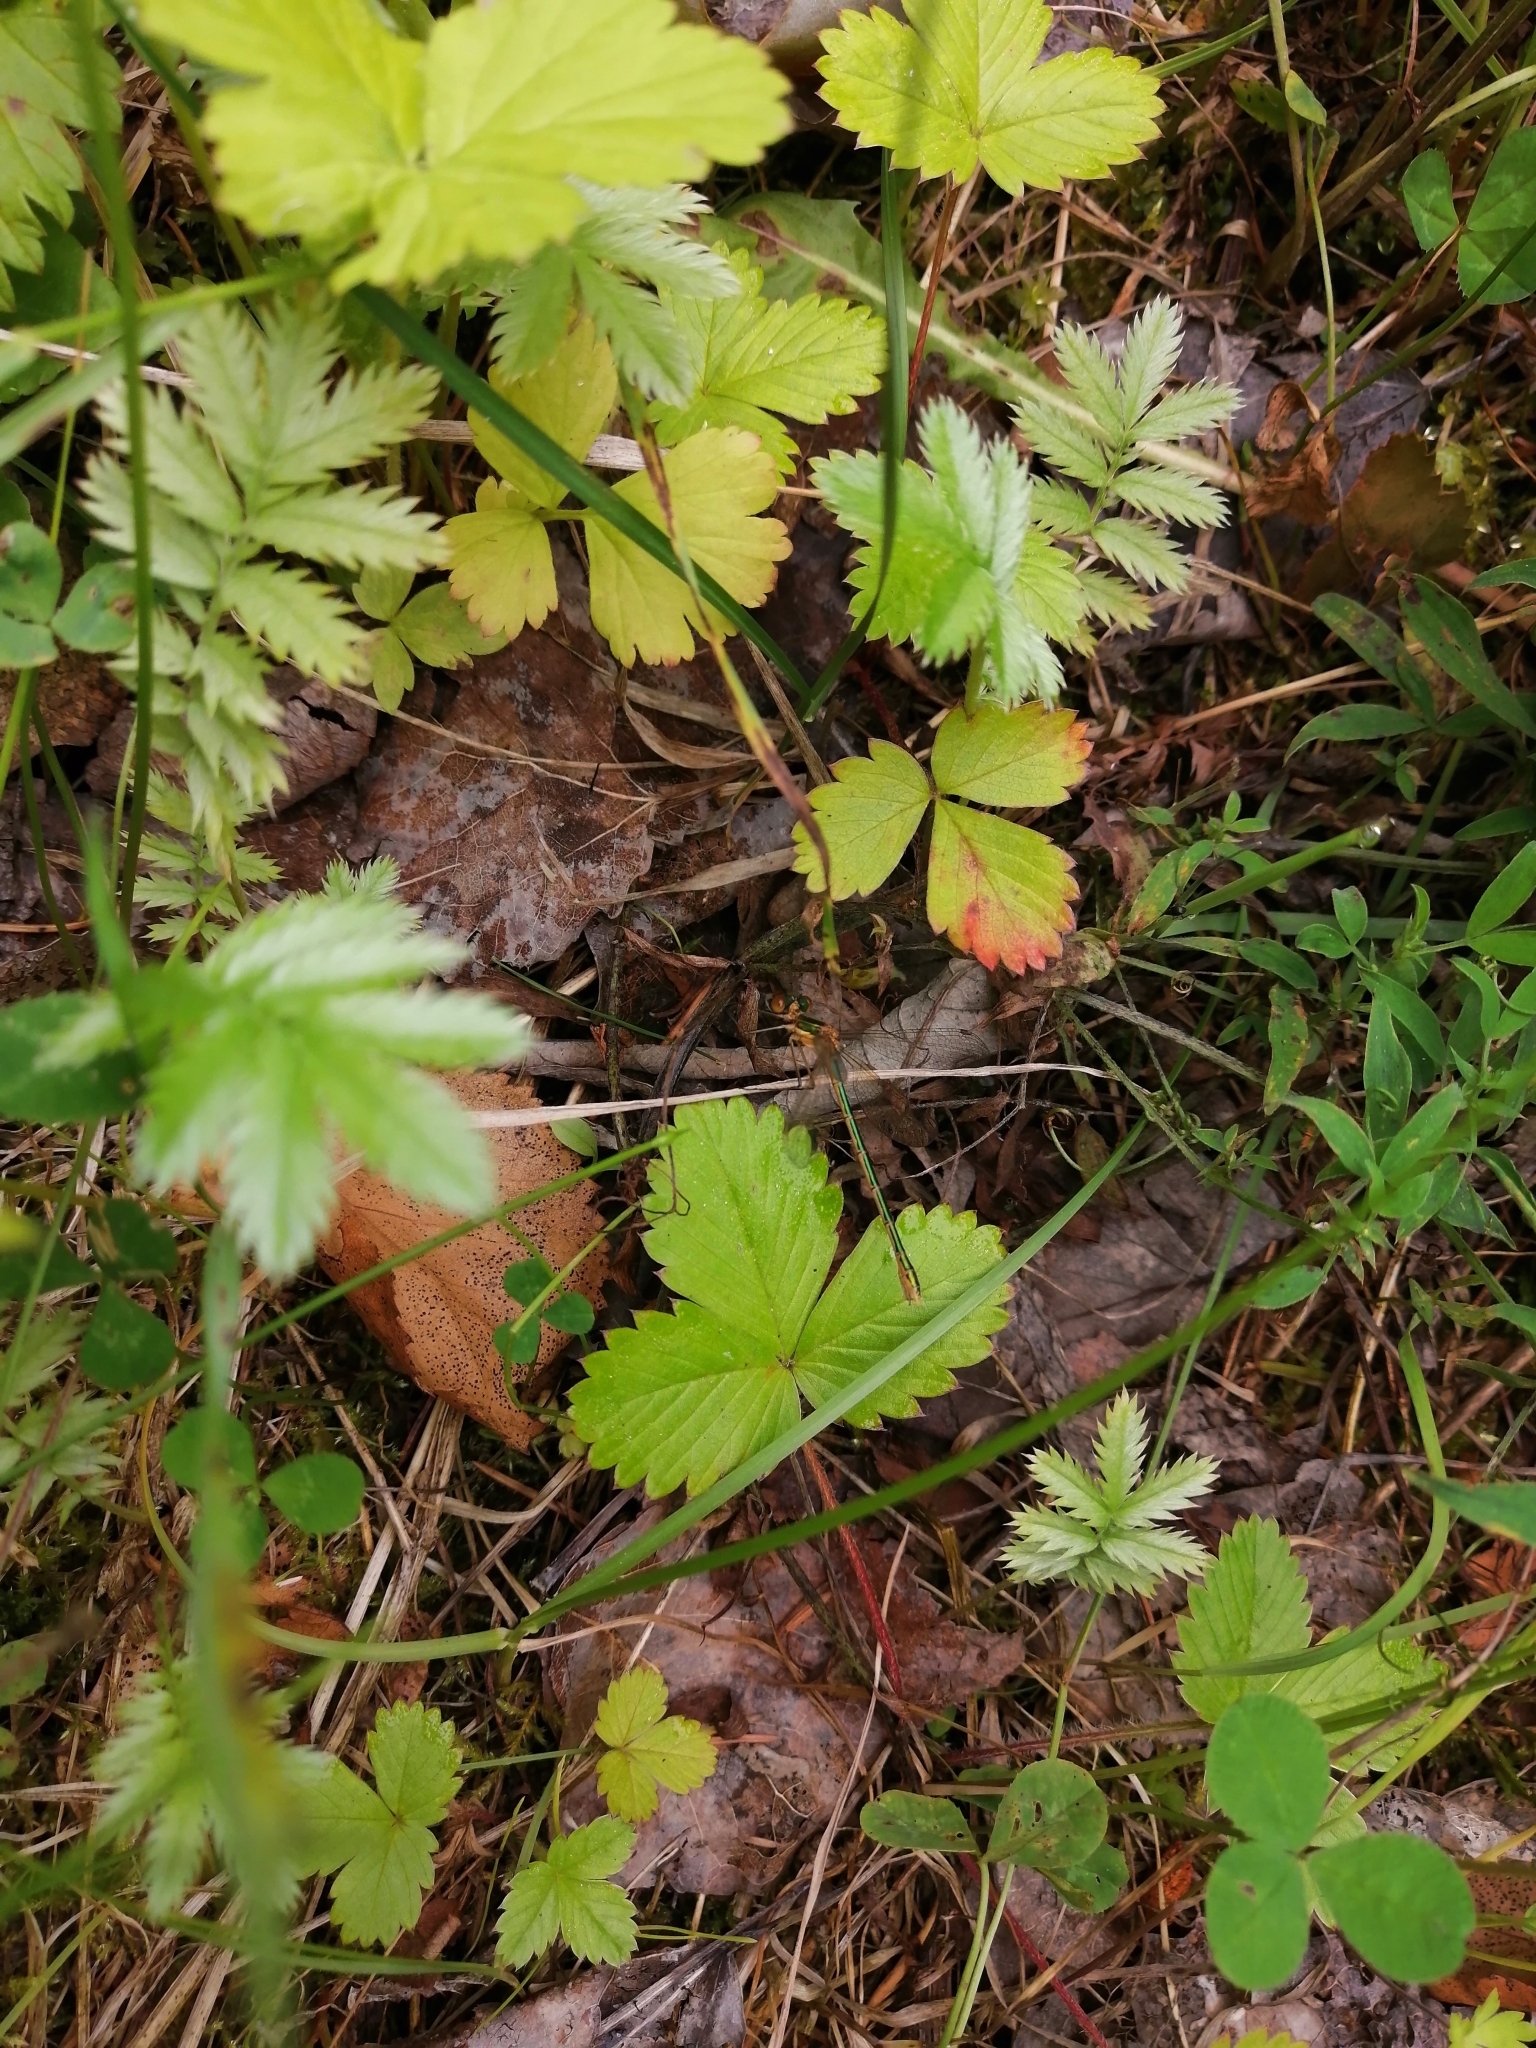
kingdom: Animalia
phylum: Arthropoda
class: Insecta
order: Odonata
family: Lestidae
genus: Lestes
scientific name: Lestes sponsa
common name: Common spreadwing
